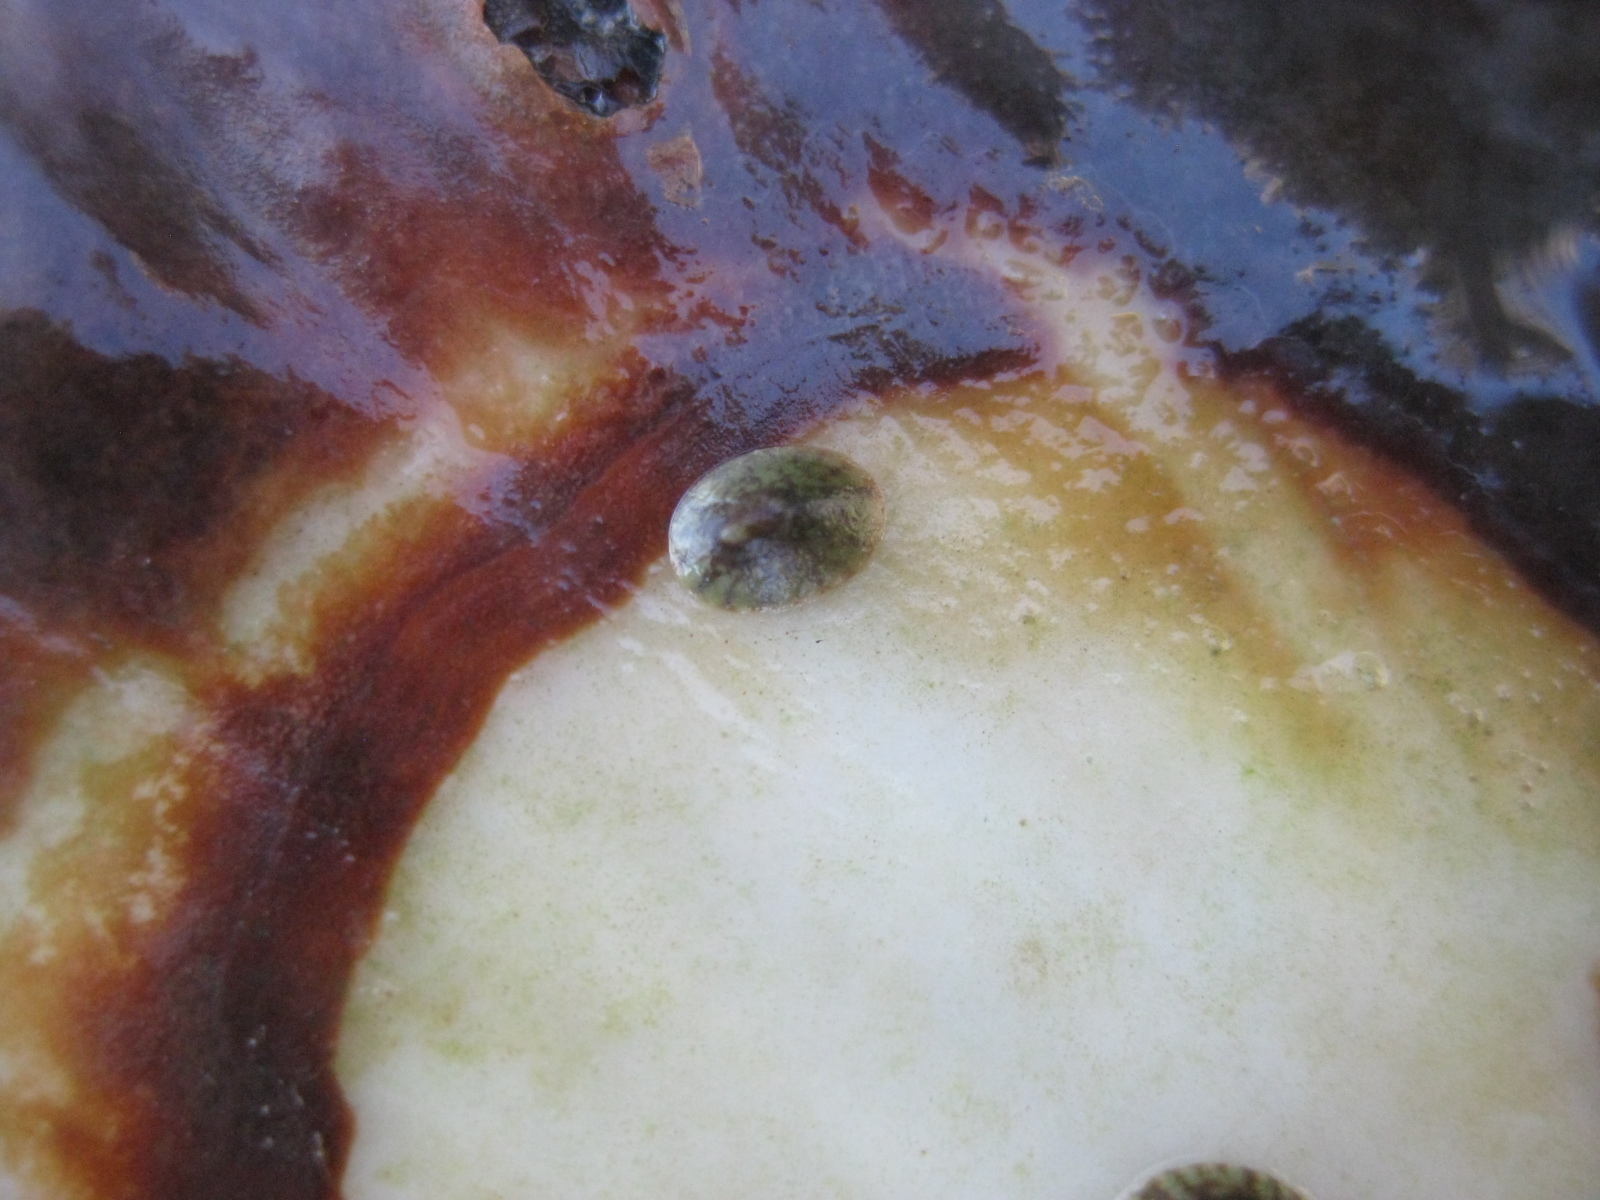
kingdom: Animalia
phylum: Mollusca
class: Gastropoda
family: Lottiidae
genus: Notoacmea
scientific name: Notoacmea elongata
